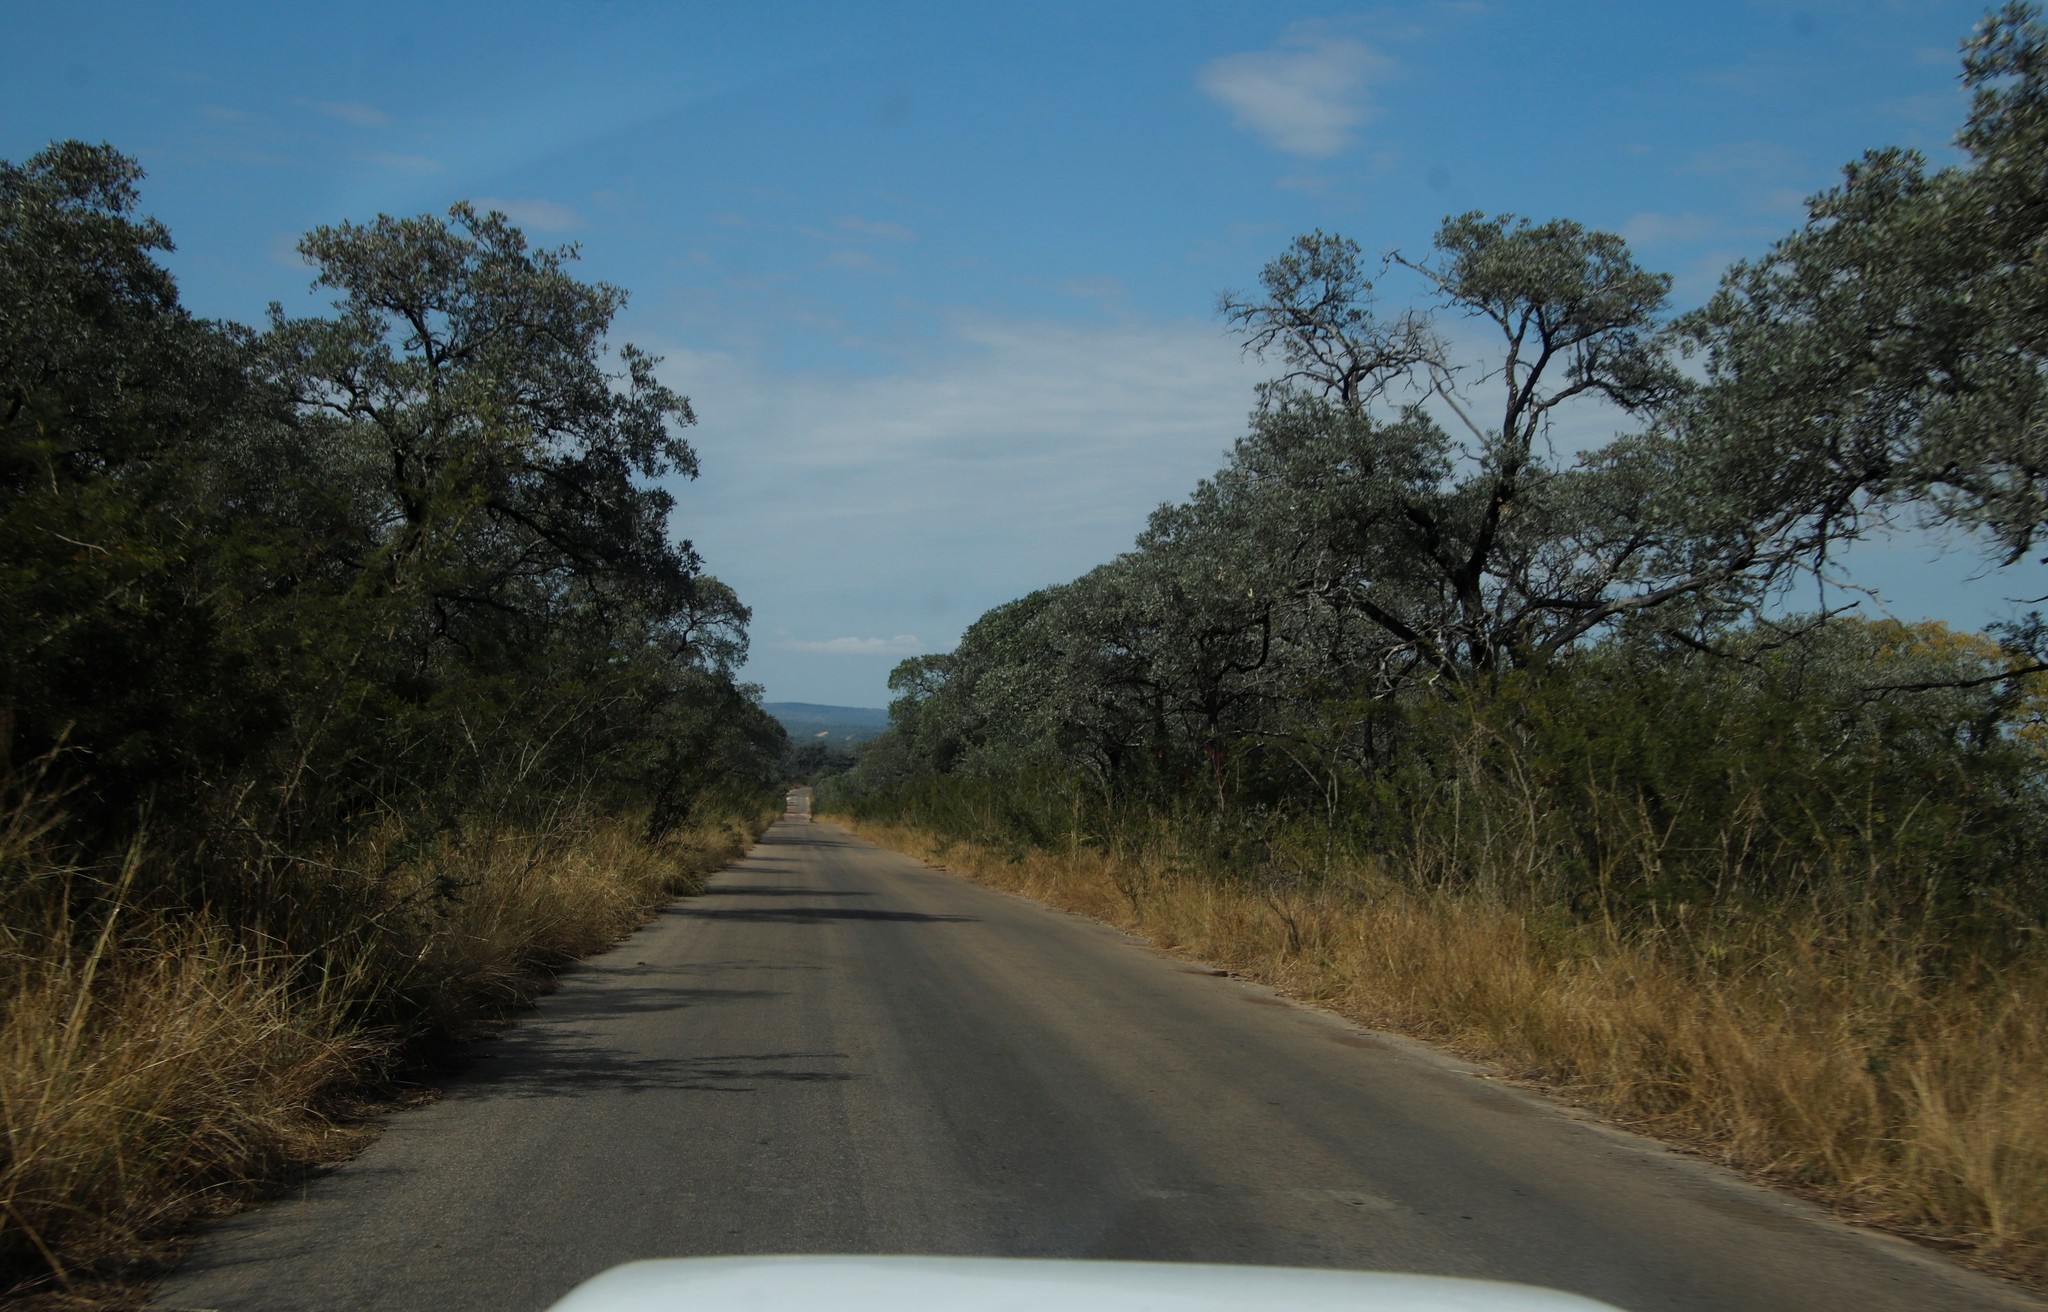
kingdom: Plantae
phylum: Tracheophyta
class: Magnoliopsida
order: Myrtales
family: Combretaceae
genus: Terminalia
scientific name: Terminalia sericea
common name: Clusterleaf
